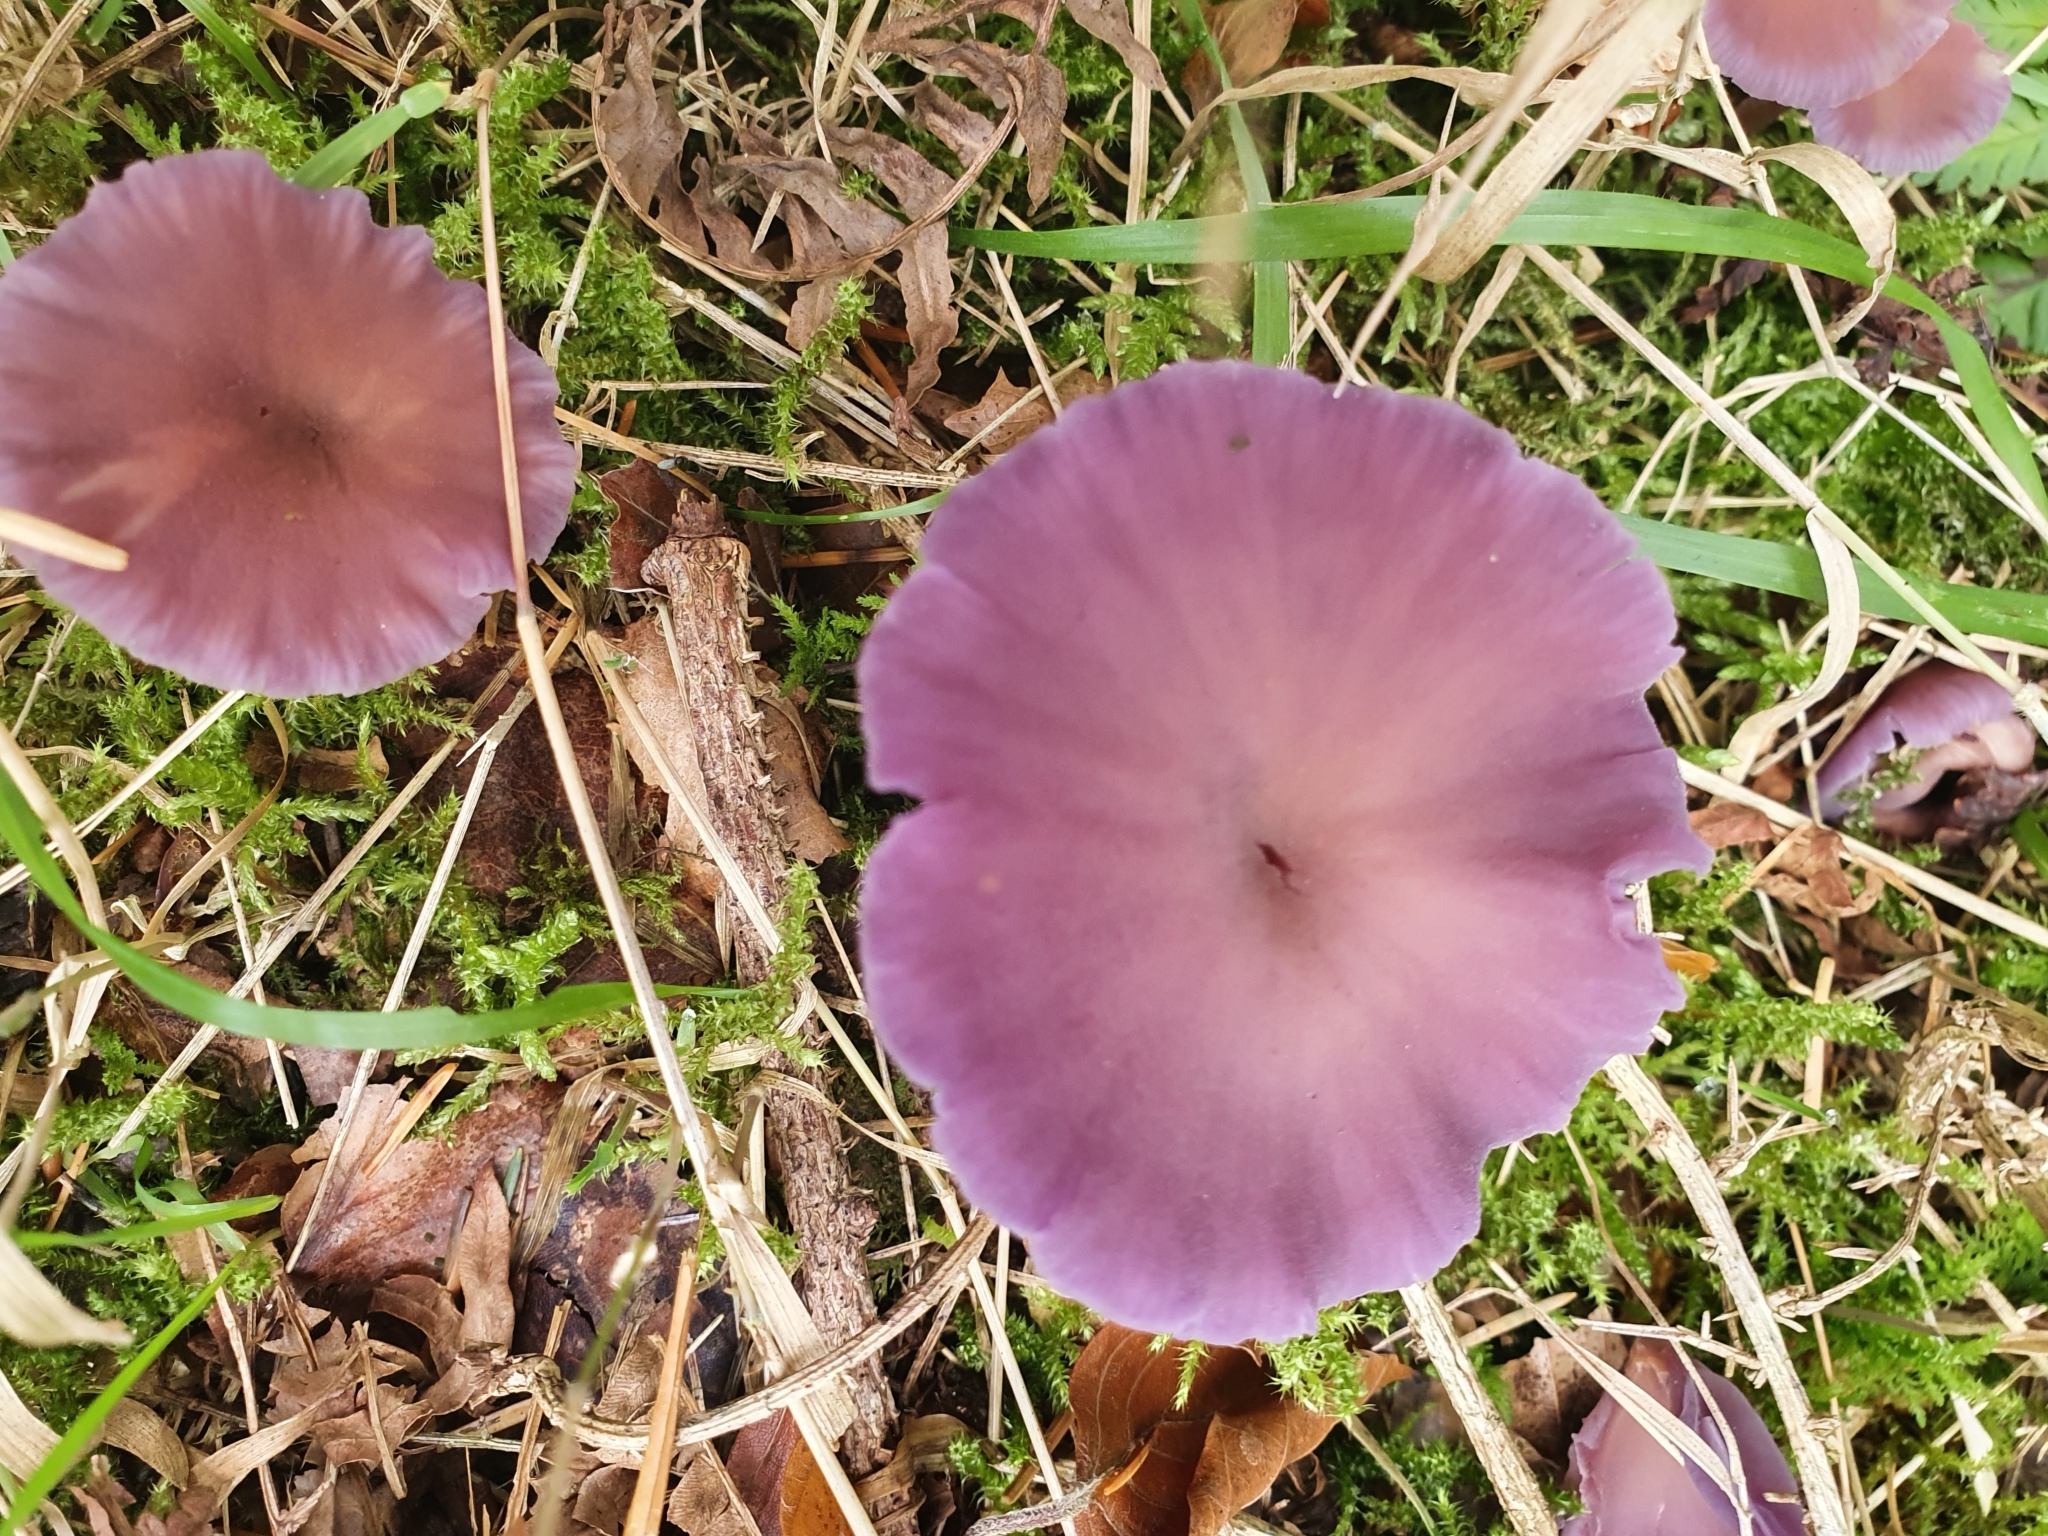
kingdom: Fungi
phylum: Basidiomycota
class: Agaricomycetes
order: Agaricales
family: Hydnangiaceae
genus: Laccaria
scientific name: Laccaria amethystina
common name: Amethyst deceiver
